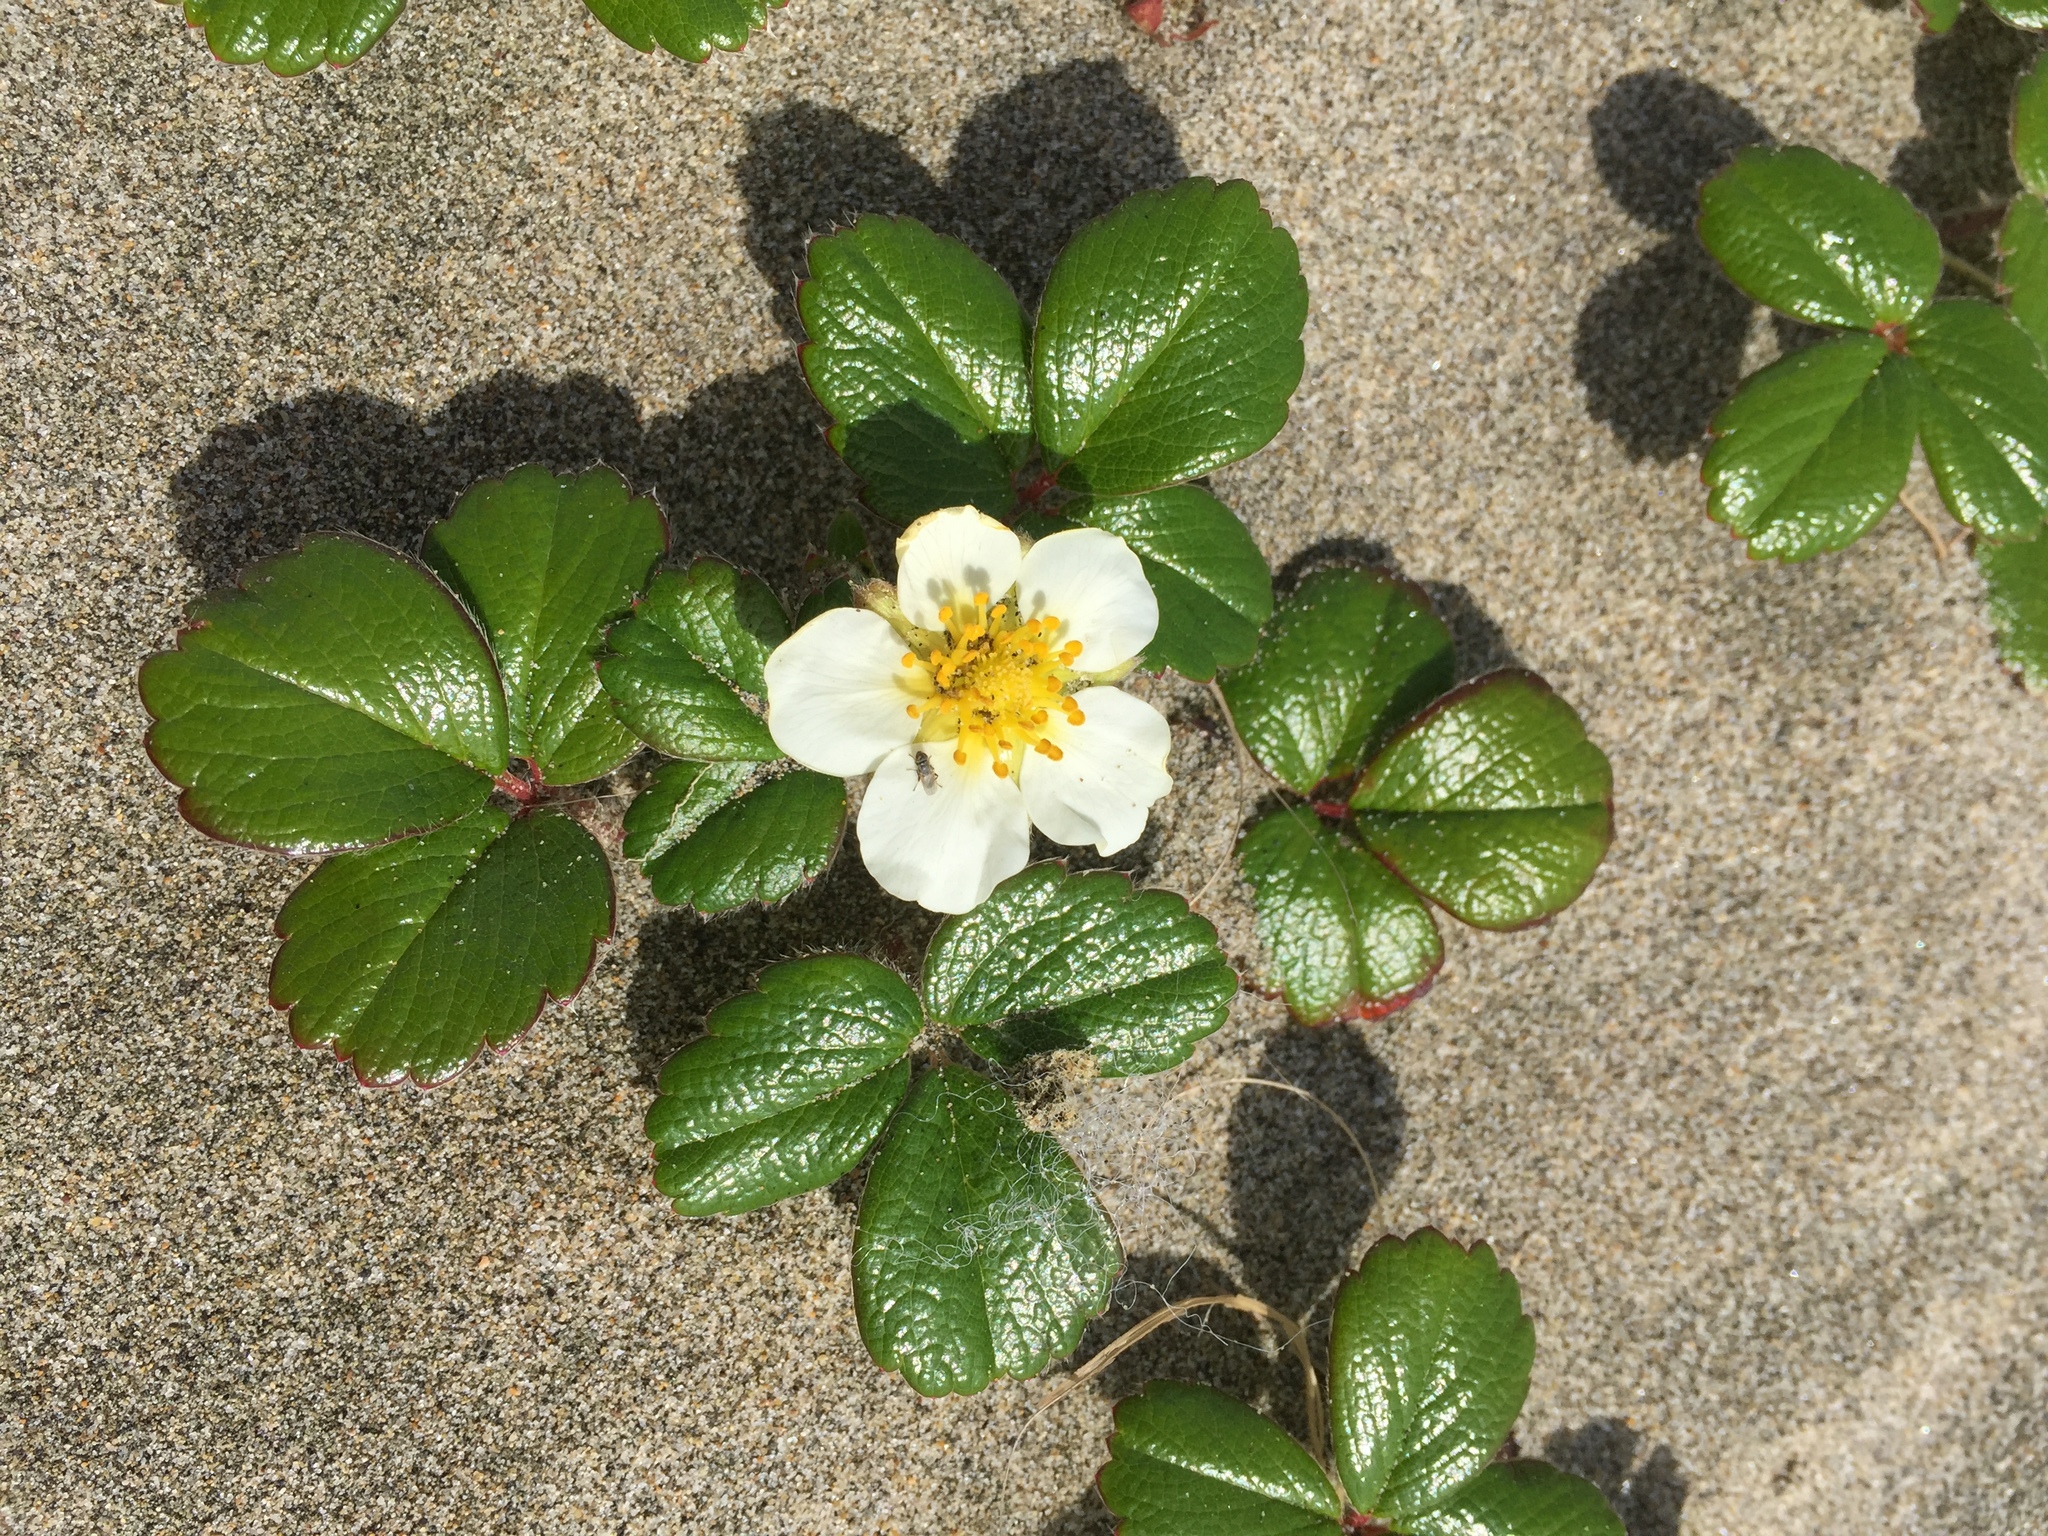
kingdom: Plantae
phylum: Tracheophyta
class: Magnoliopsida
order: Rosales
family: Rosaceae
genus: Fragaria
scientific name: Fragaria chiloensis
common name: Beach strawberry
